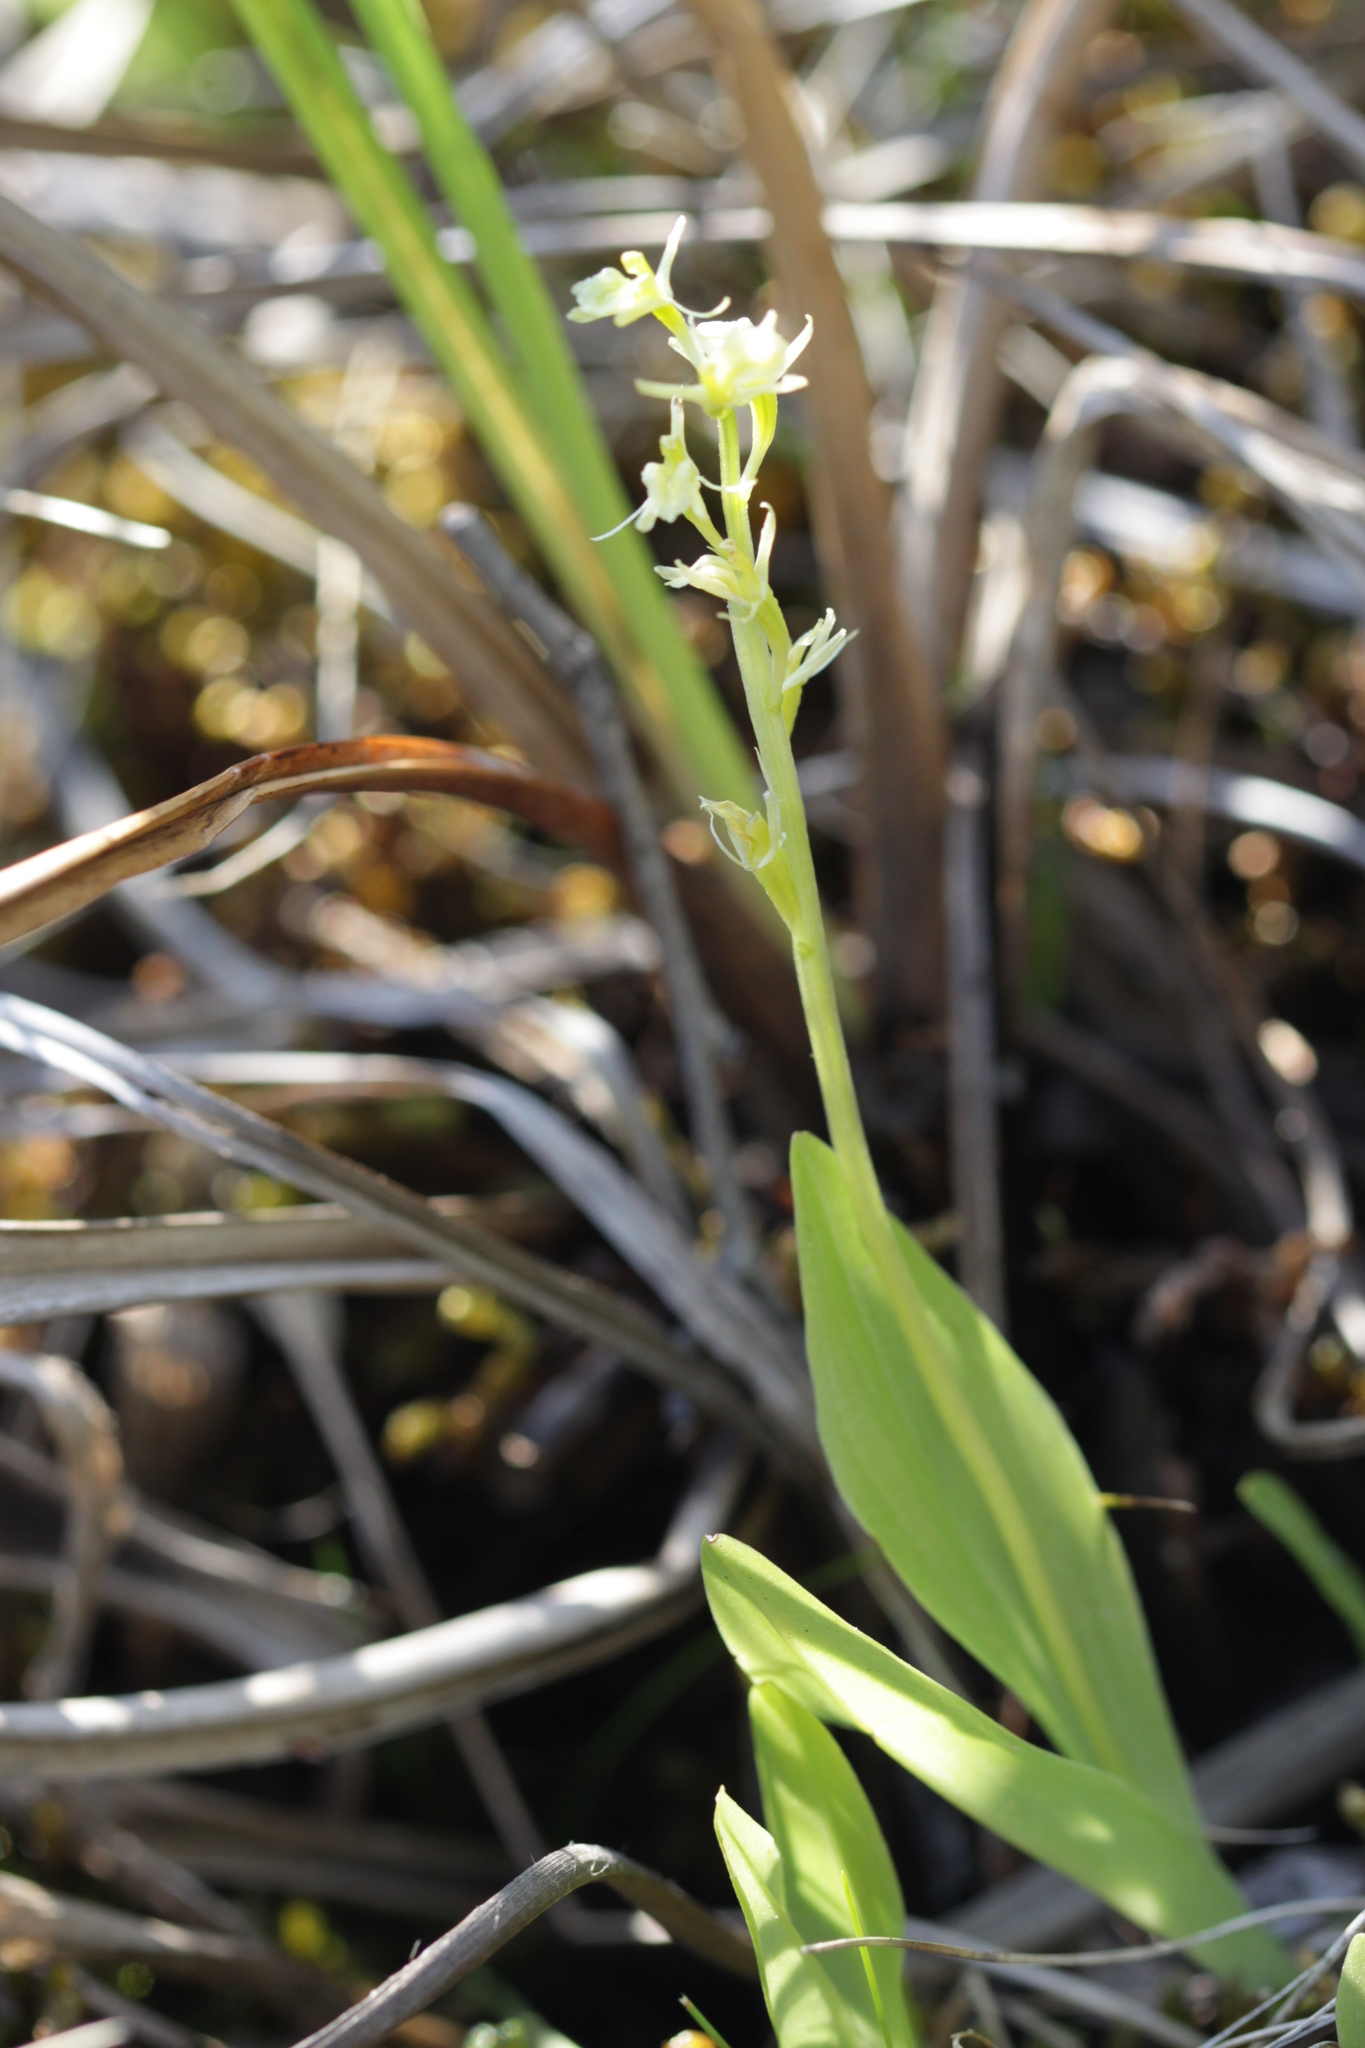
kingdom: Animalia
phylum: Arthropoda
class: Insecta
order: Coleoptera
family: Curculionidae
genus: Liparis
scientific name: Liparis loeselii
